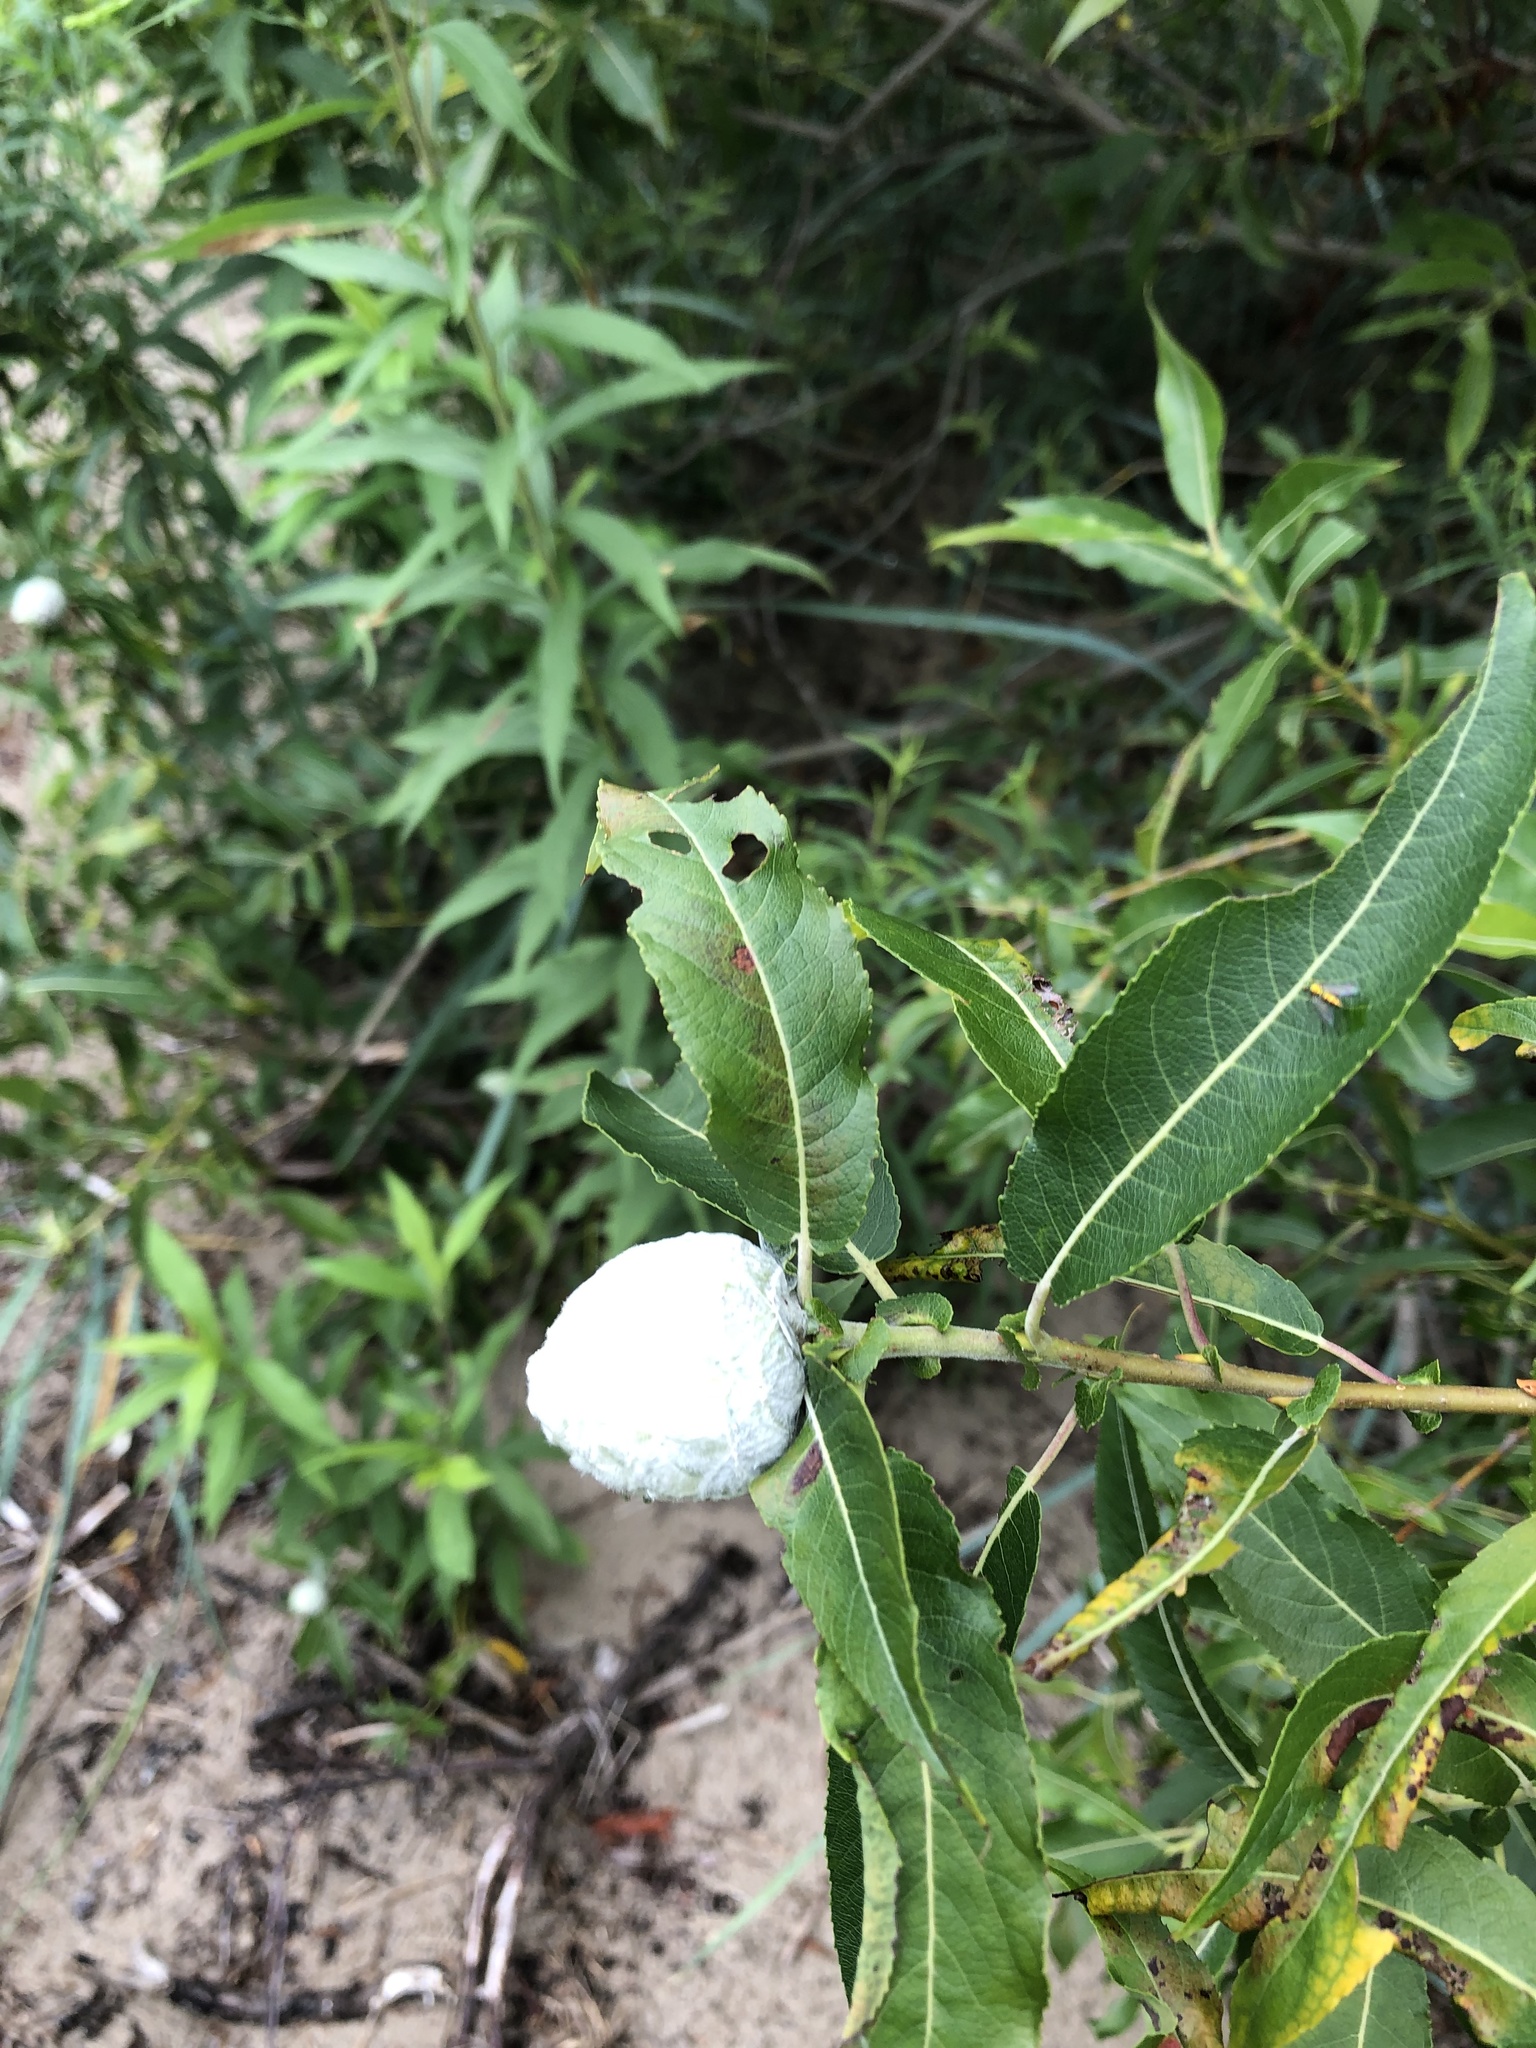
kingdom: Animalia
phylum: Arthropoda
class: Insecta
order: Diptera
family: Cecidomyiidae
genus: Rabdophaga
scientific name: Rabdophaga strobiloides
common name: Willow pinecone gall midge
